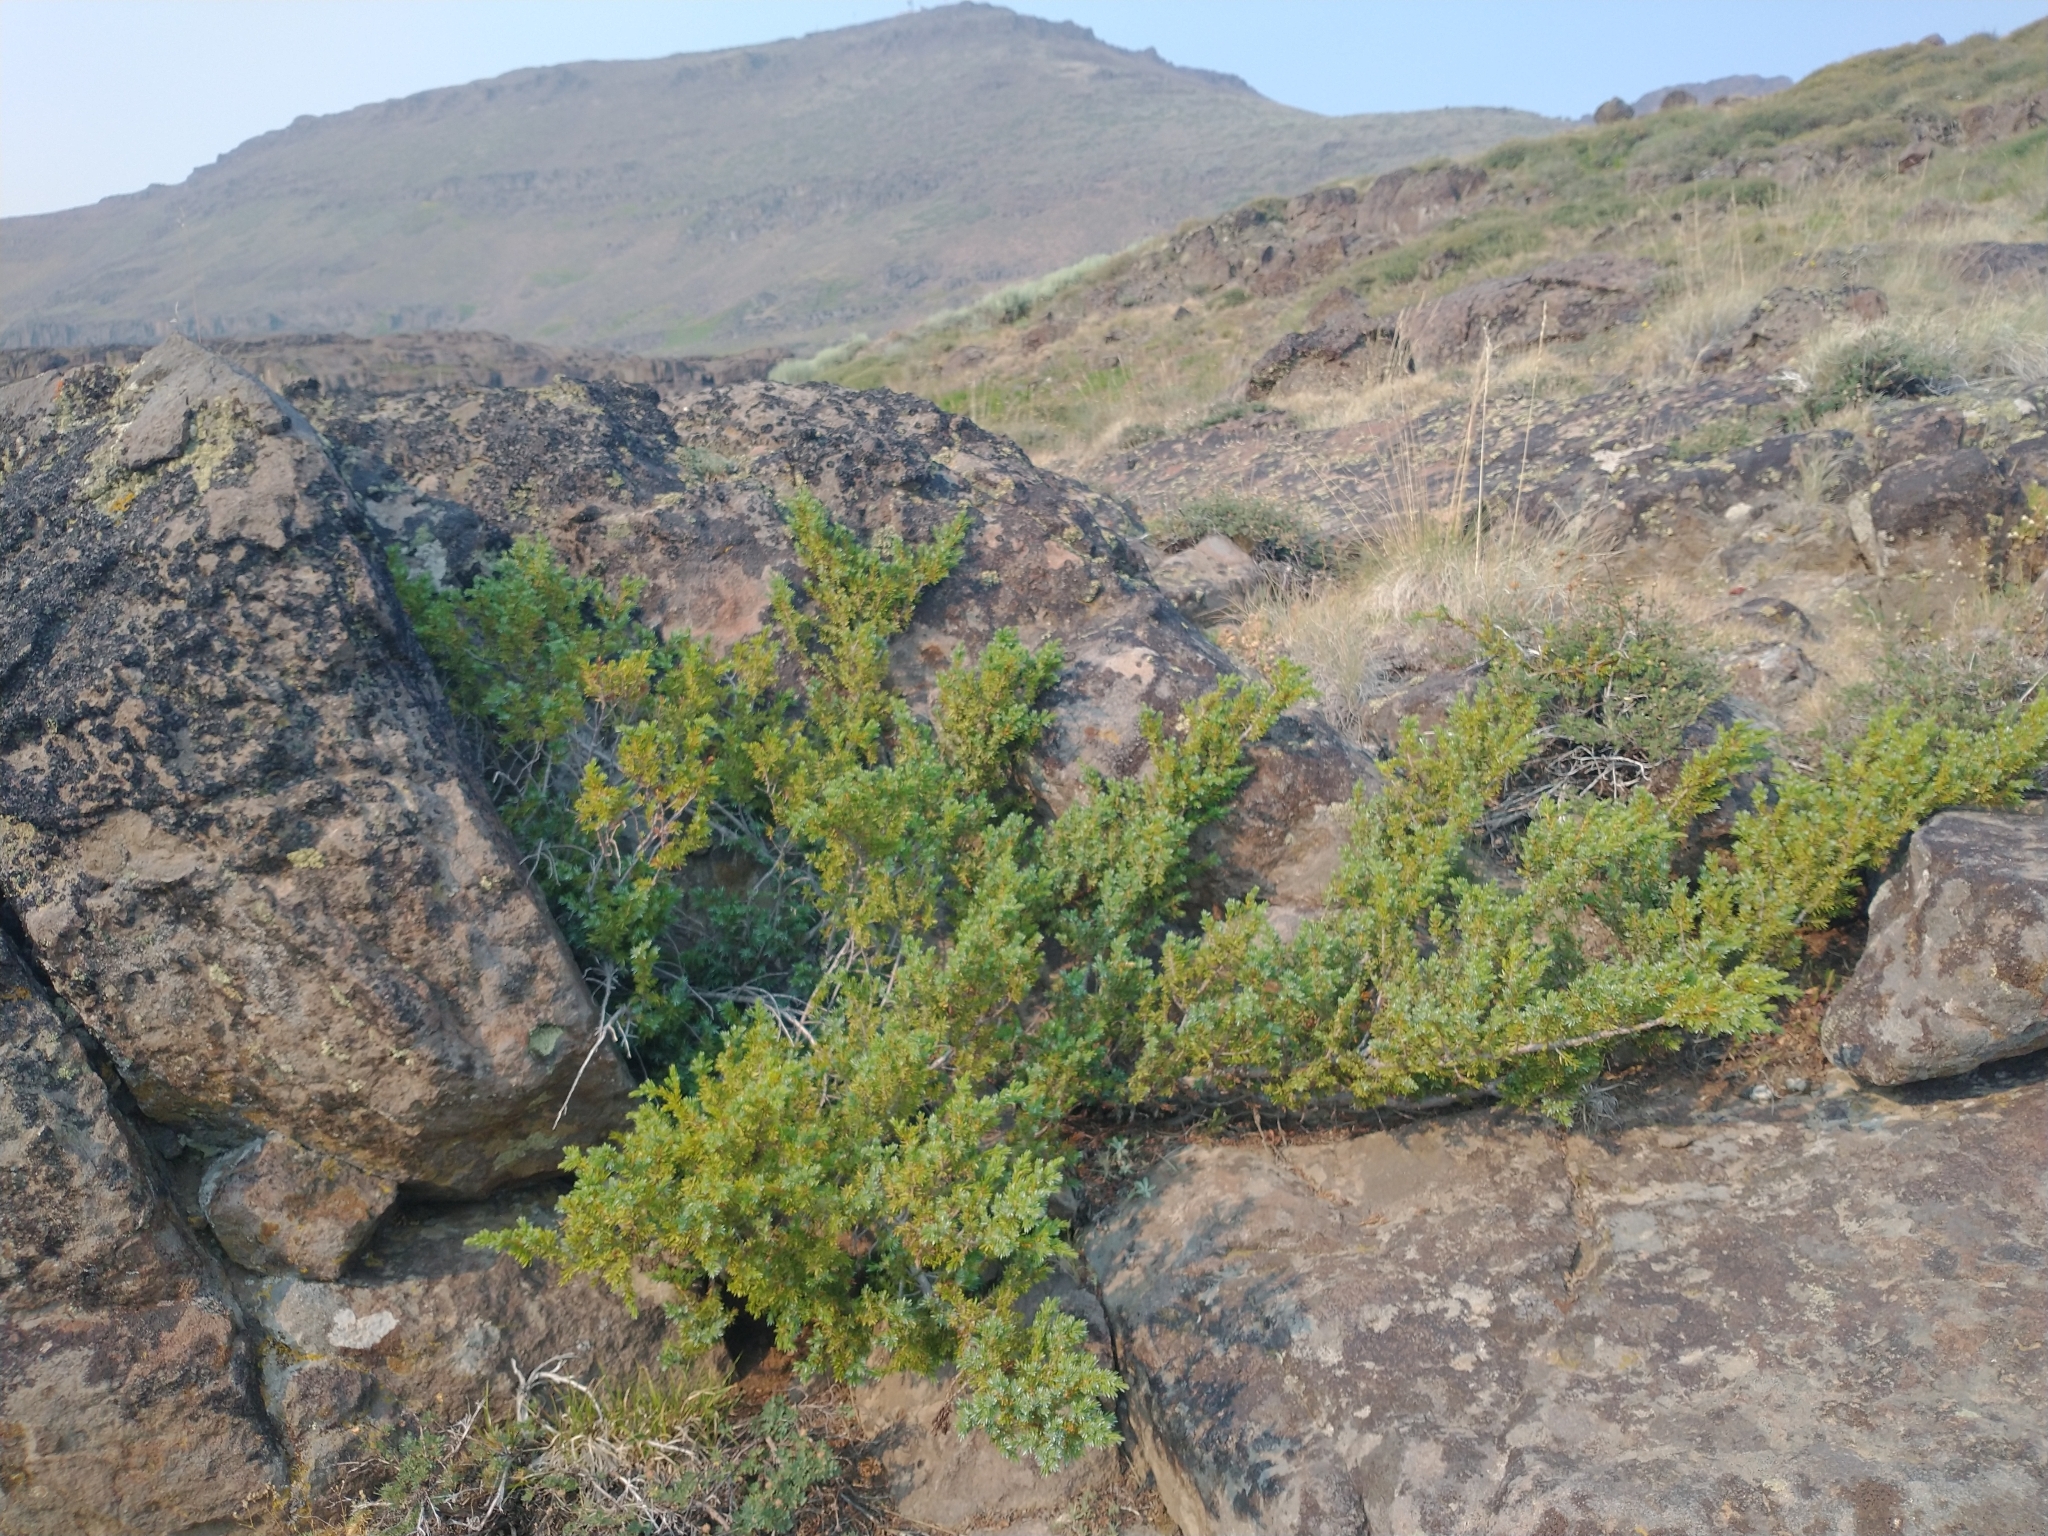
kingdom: Plantae
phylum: Tracheophyta
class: Pinopsida
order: Pinales
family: Cupressaceae
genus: Juniperus
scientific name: Juniperus communis
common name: Common juniper
